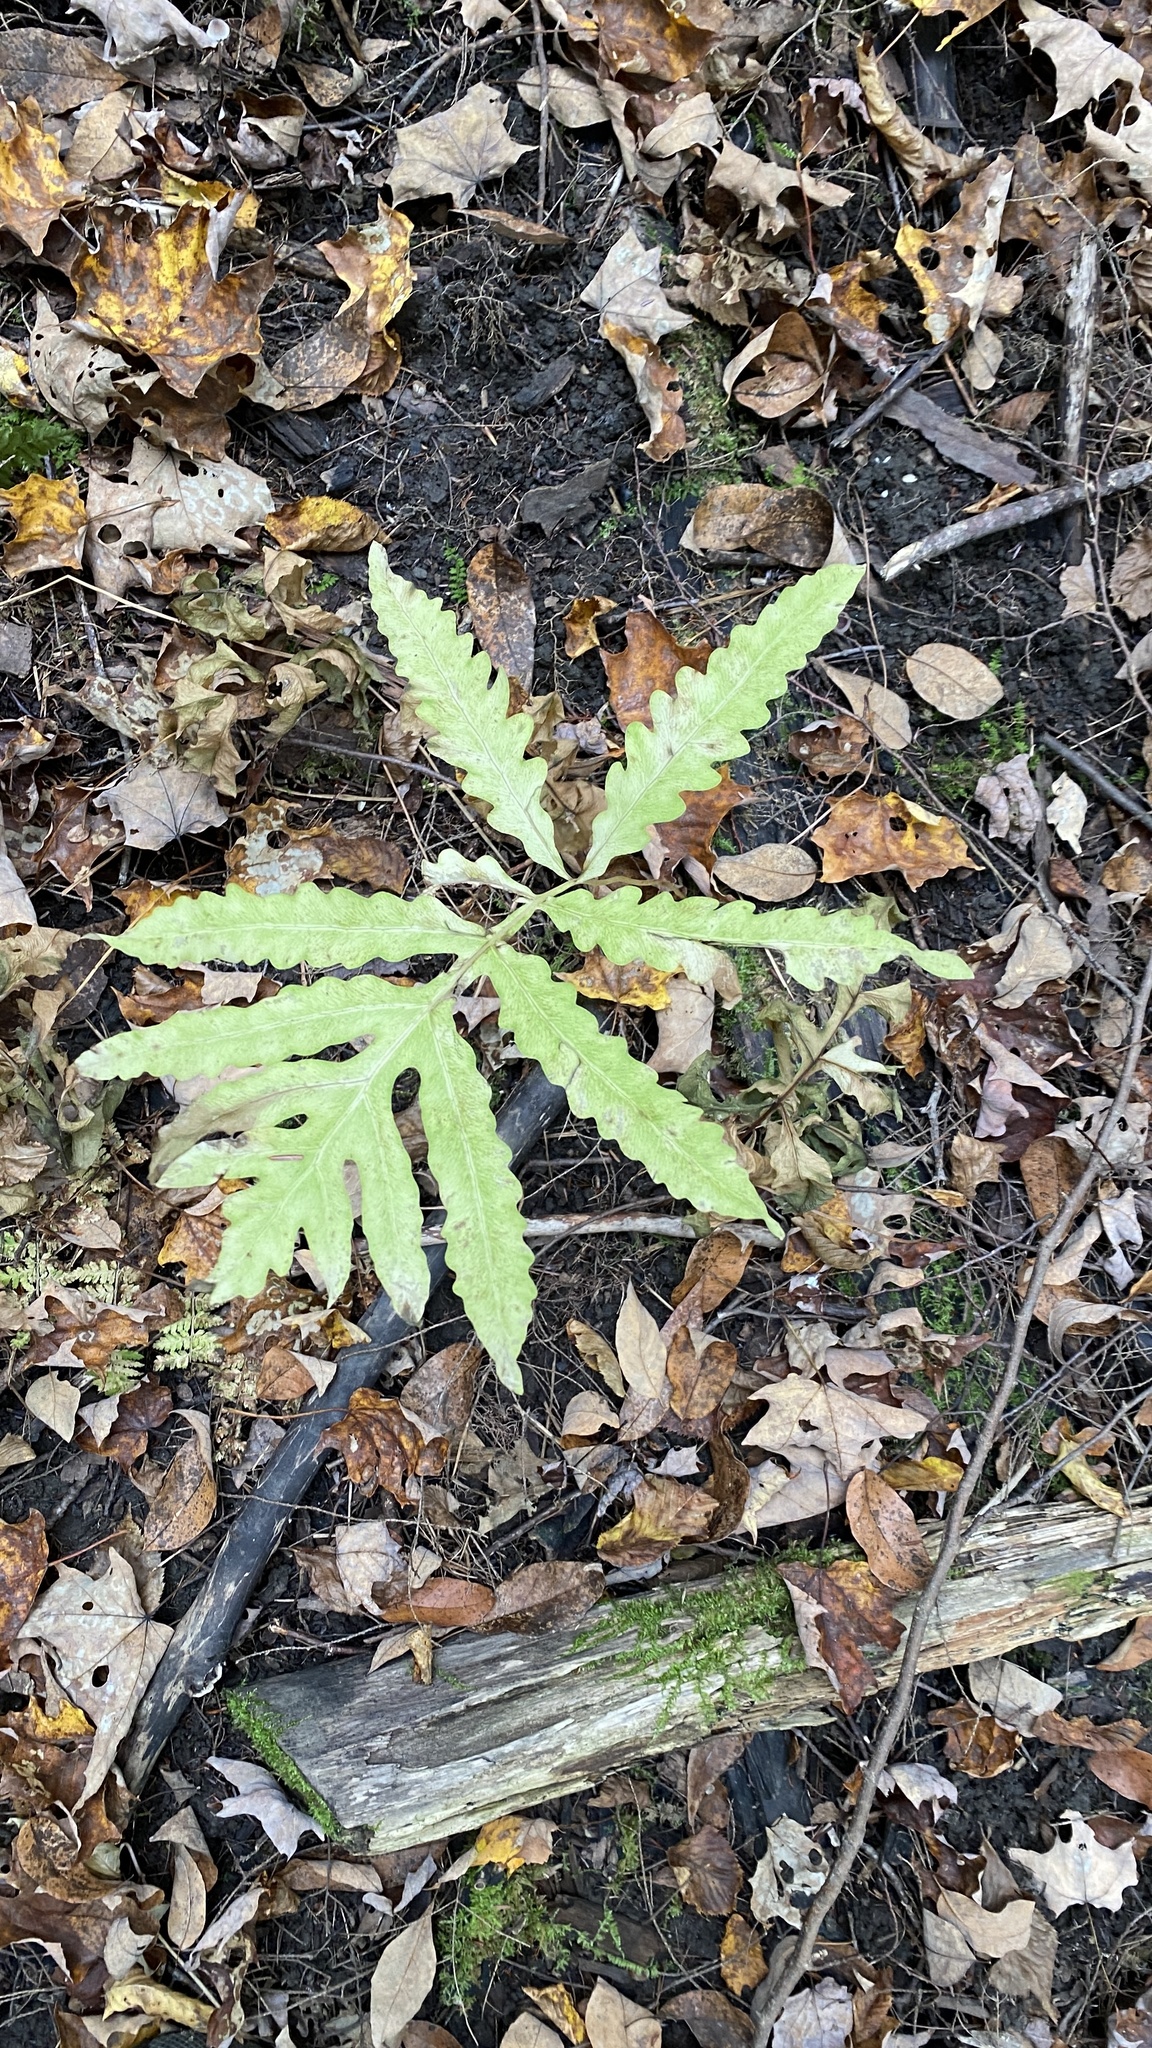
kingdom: Plantae
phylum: Tracheophyta
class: Polypodiopsida
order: Polypodiales
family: Onocleaceae
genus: Onoclea
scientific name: Onoclea sensibilis
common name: Sensitive fern
